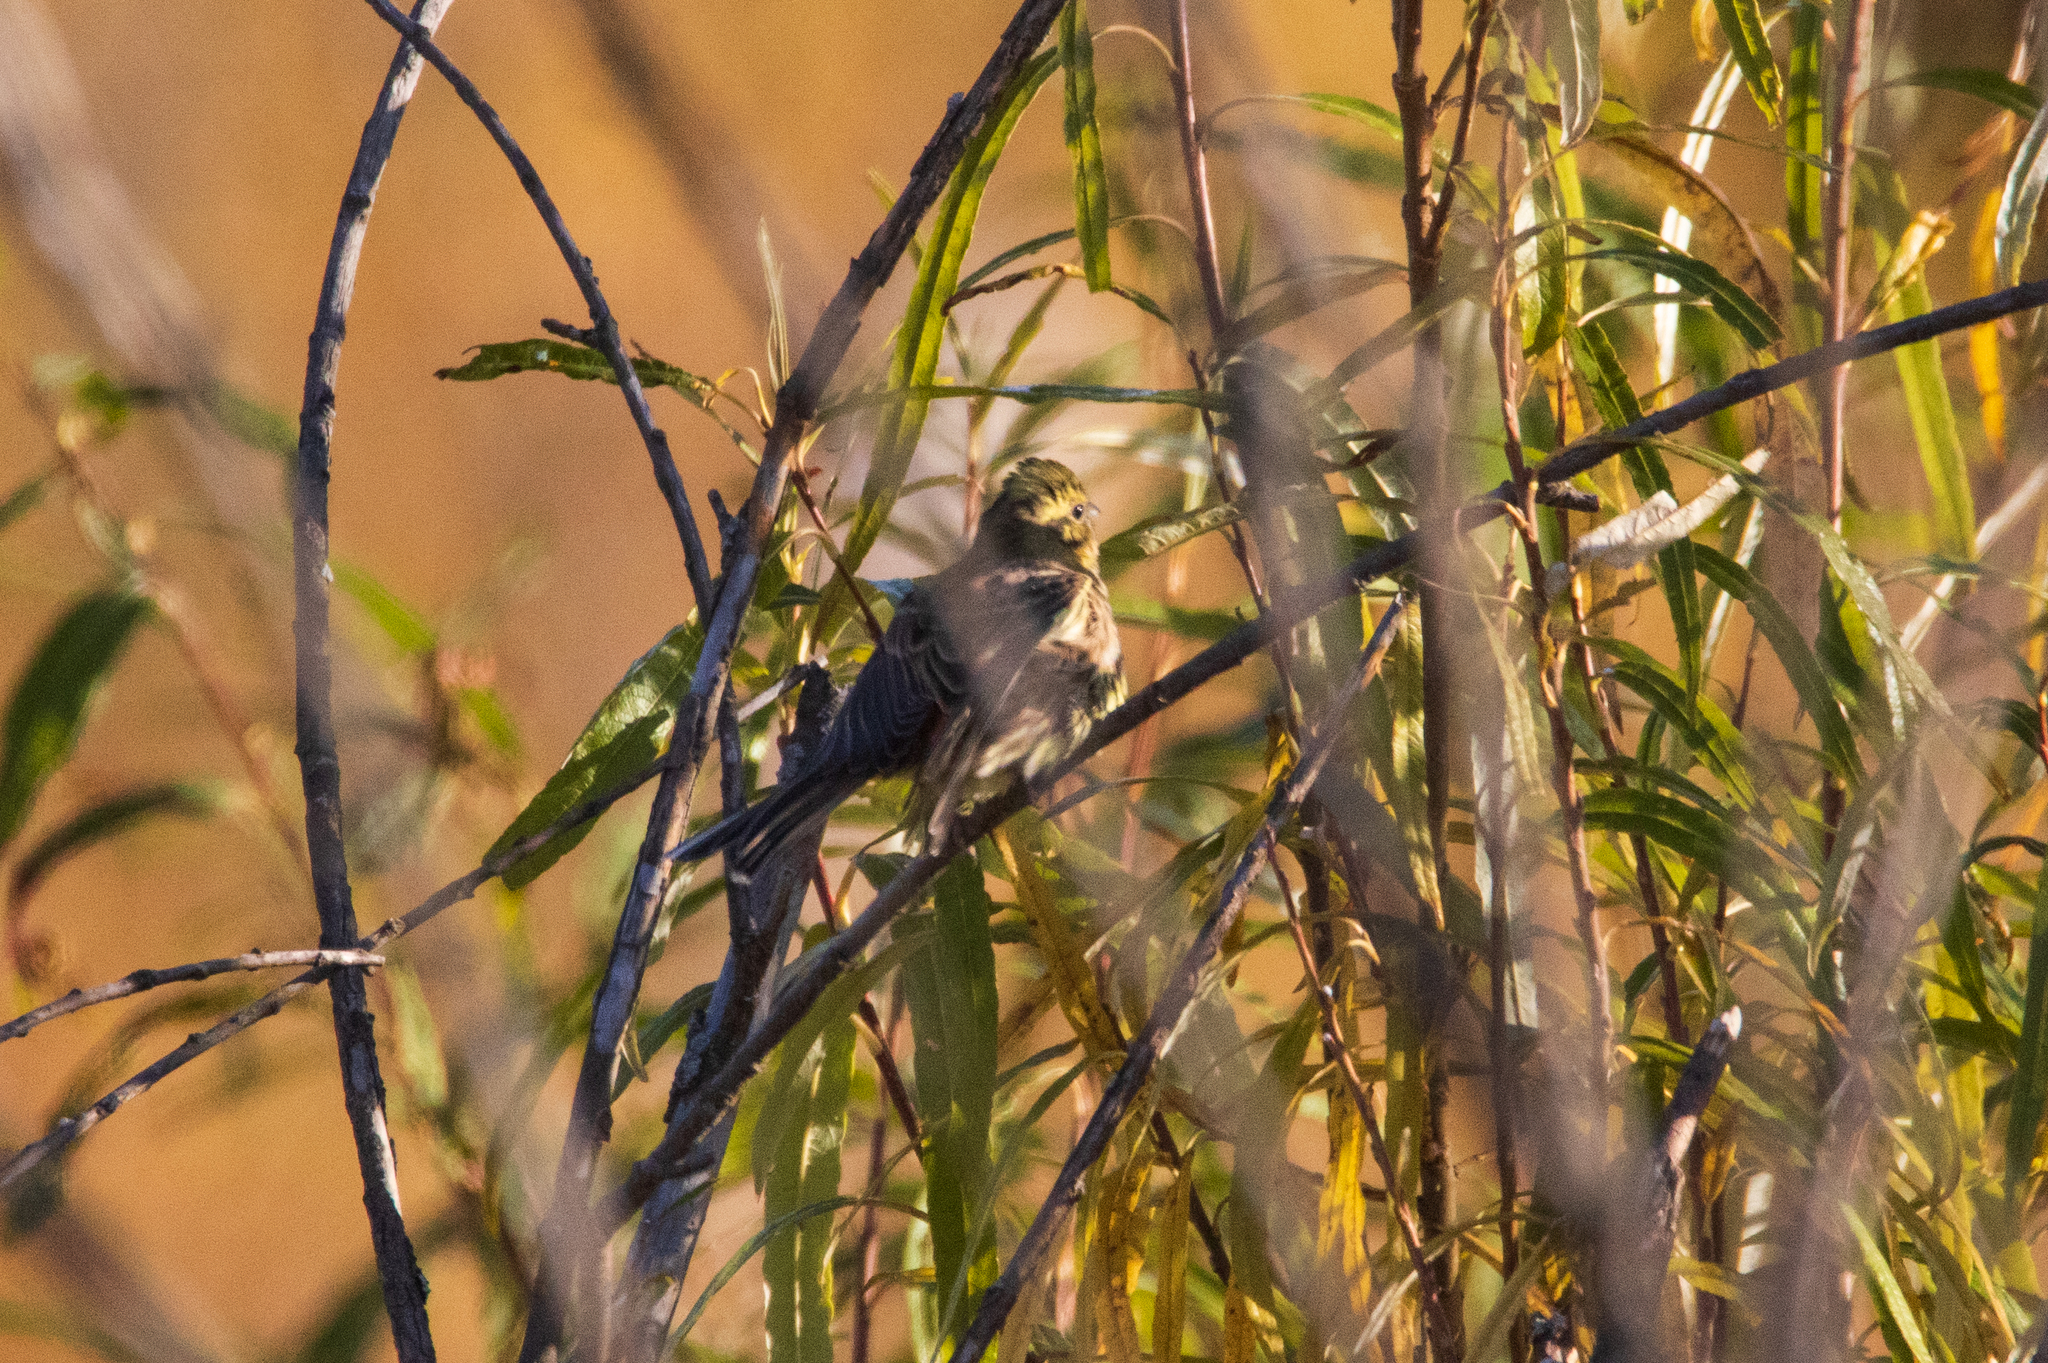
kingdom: Animalia
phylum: Chordata
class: Aves
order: Passeriformes
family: Emberizidae
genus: Emberiza
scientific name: Emberiza citrinella
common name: Yellowhammer
